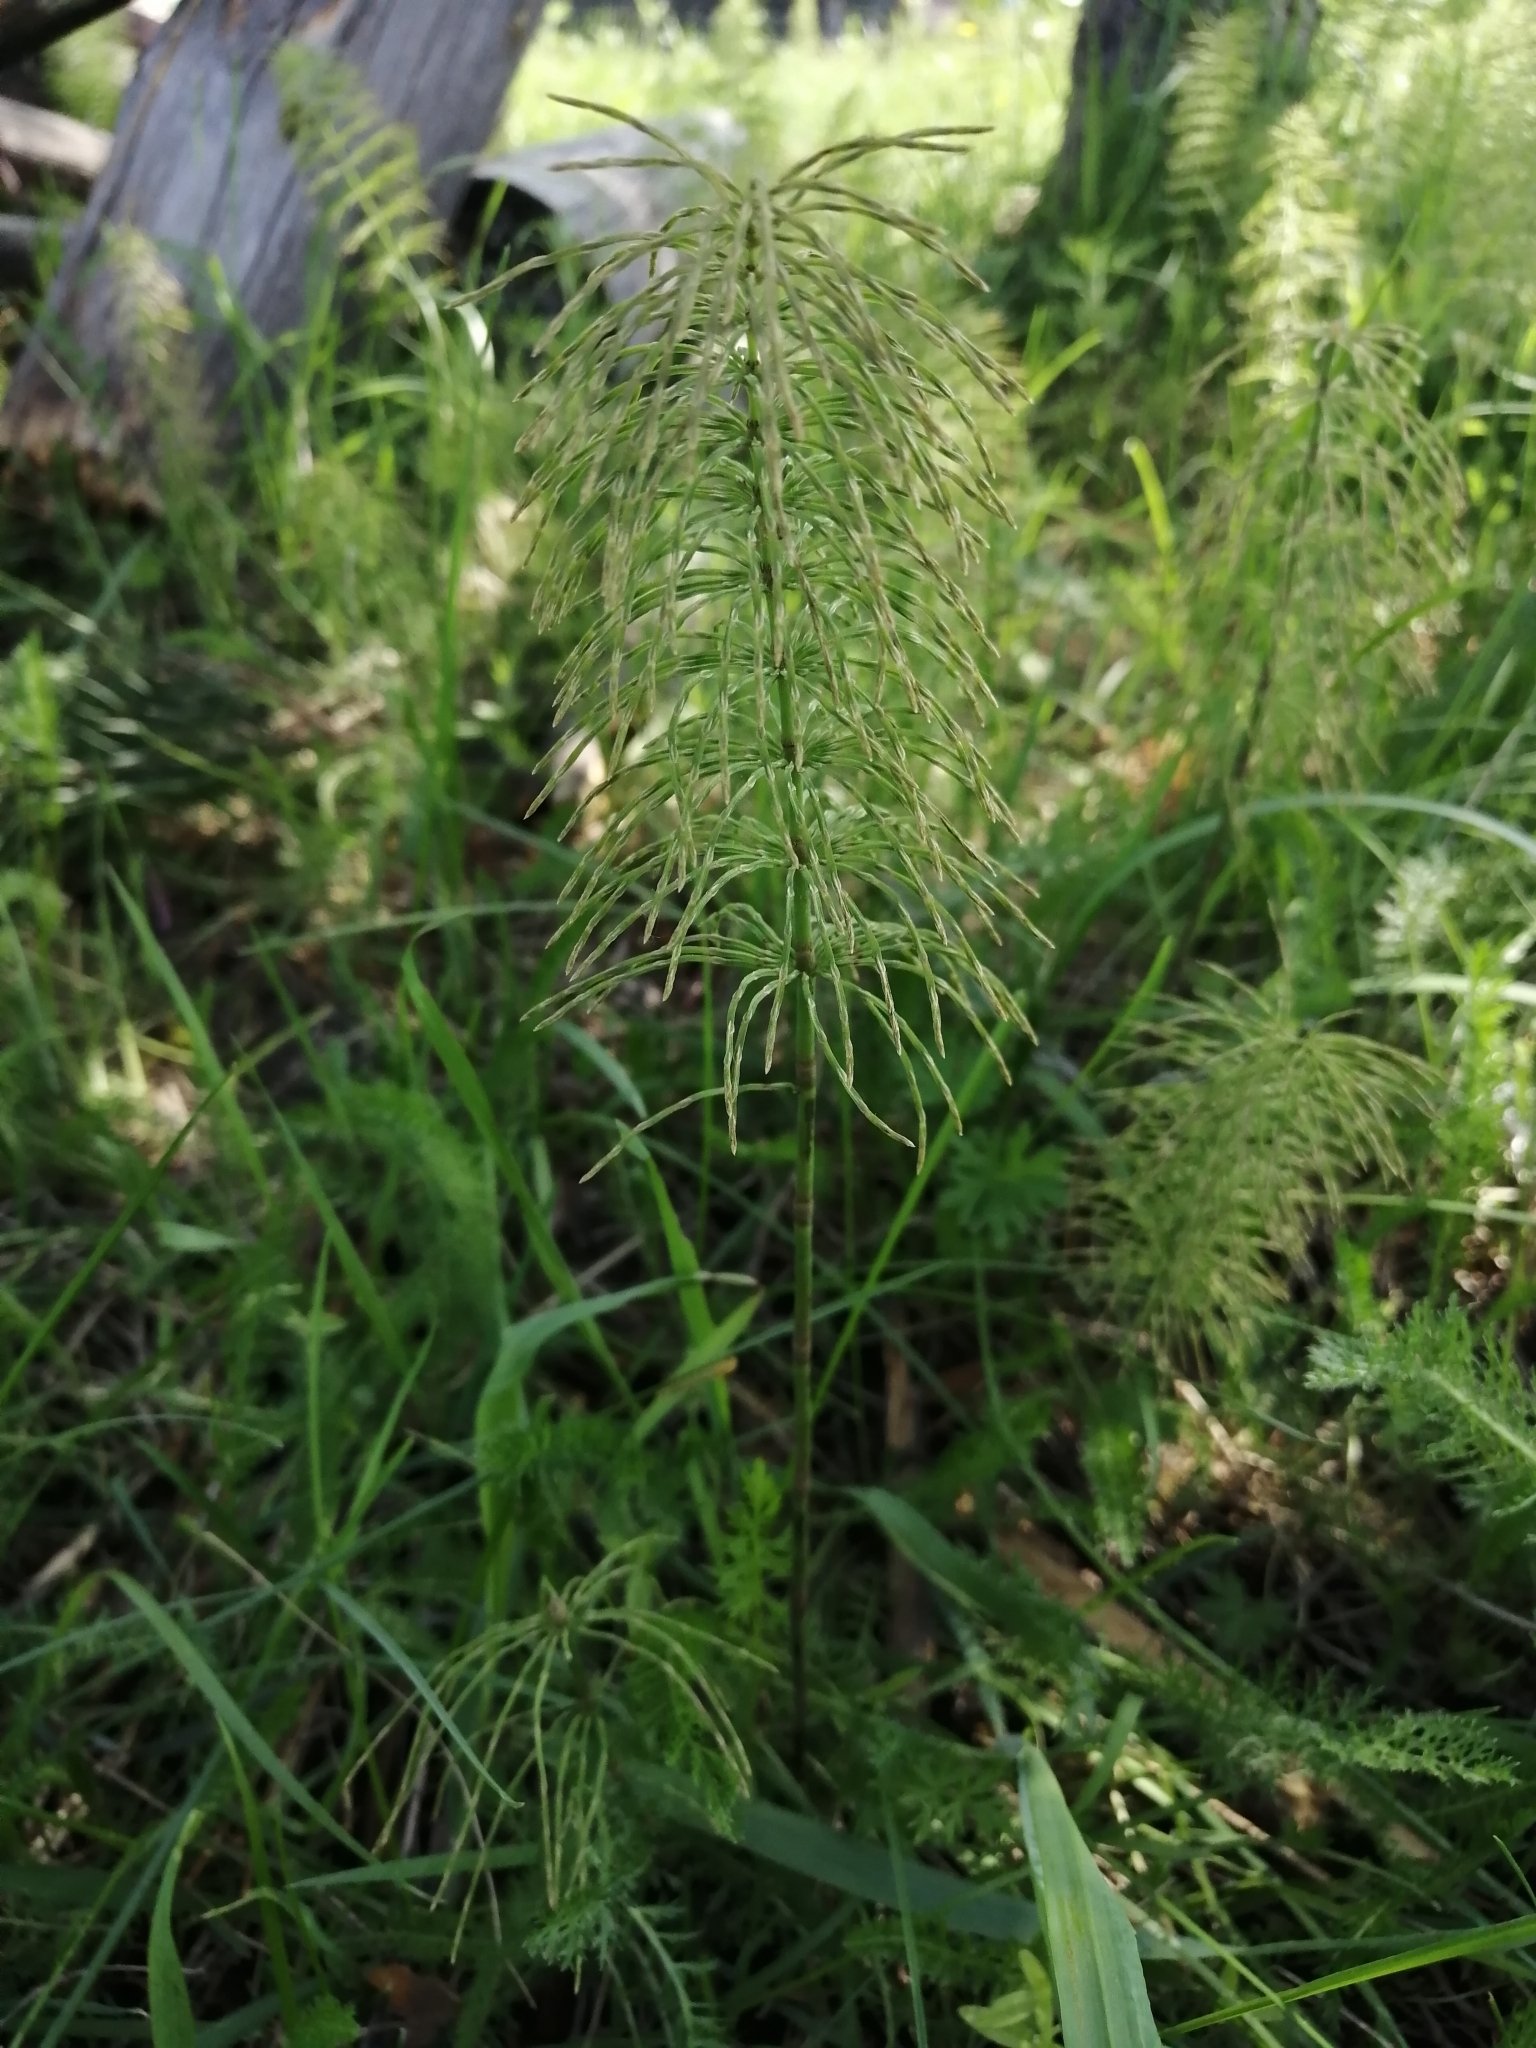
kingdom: Plantae
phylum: Tracheophyta
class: Polypodiopsida
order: Equisetales
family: Equisetaceae
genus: Equisetum
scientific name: Equisetum pratense
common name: Meadow horsetail
